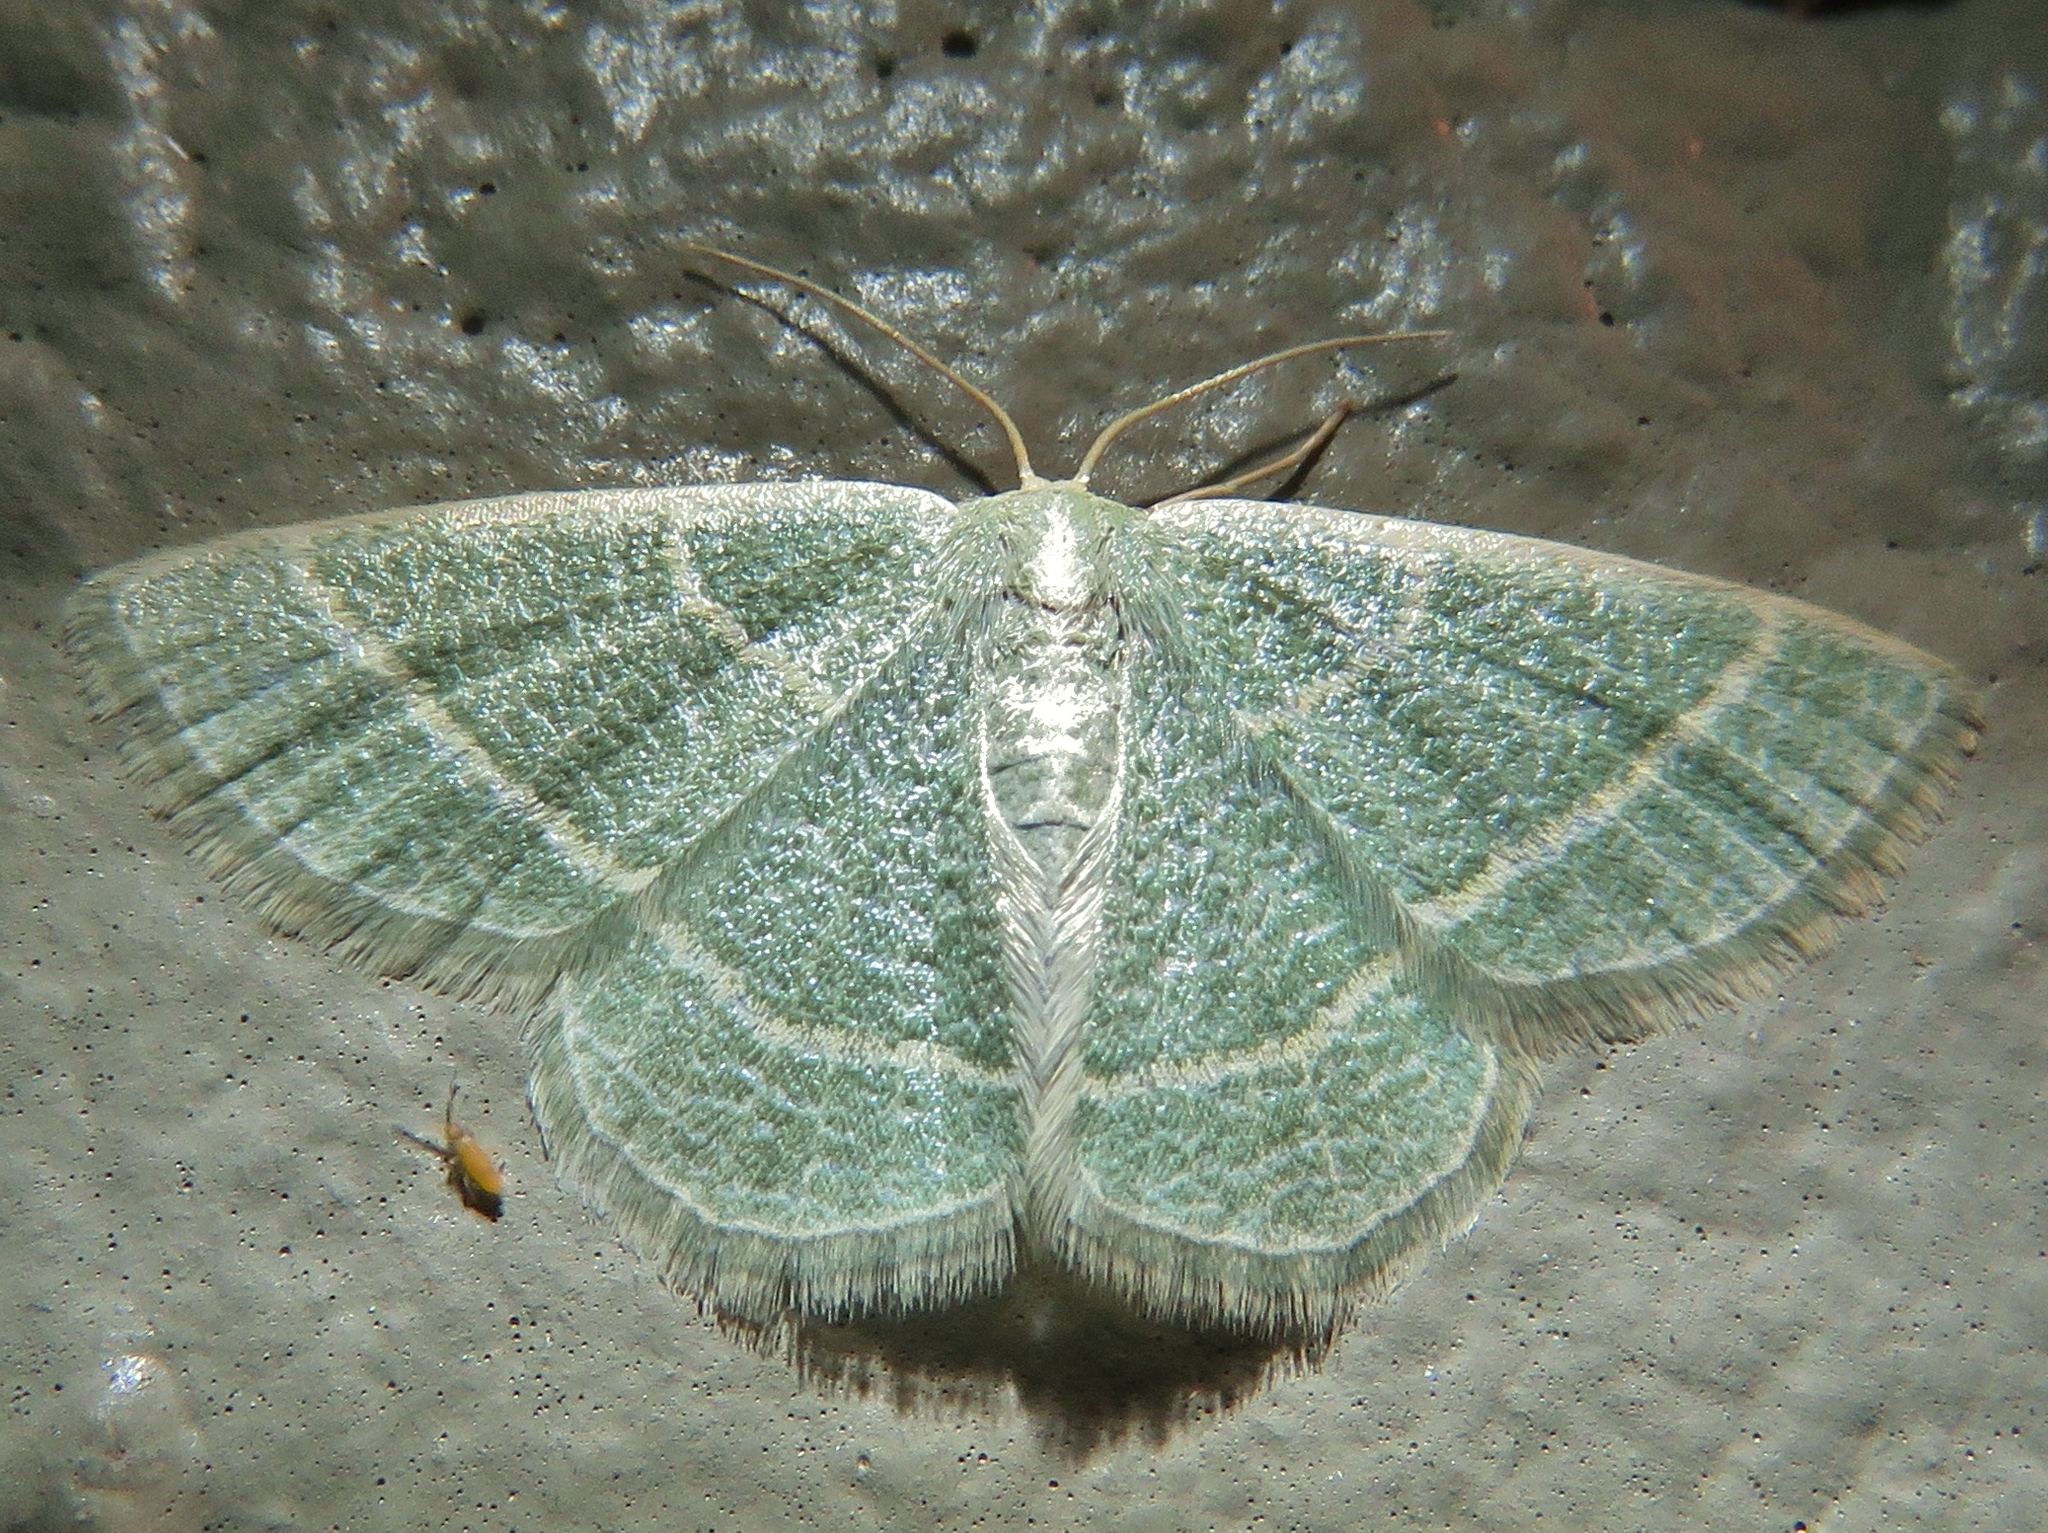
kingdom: Animalia
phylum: Arthropoda
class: Insecta
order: Lepidoptera
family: Geometridae
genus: Chlorochlamys
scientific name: Chlorochlamys chloroleucaria
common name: Blackberry looper
